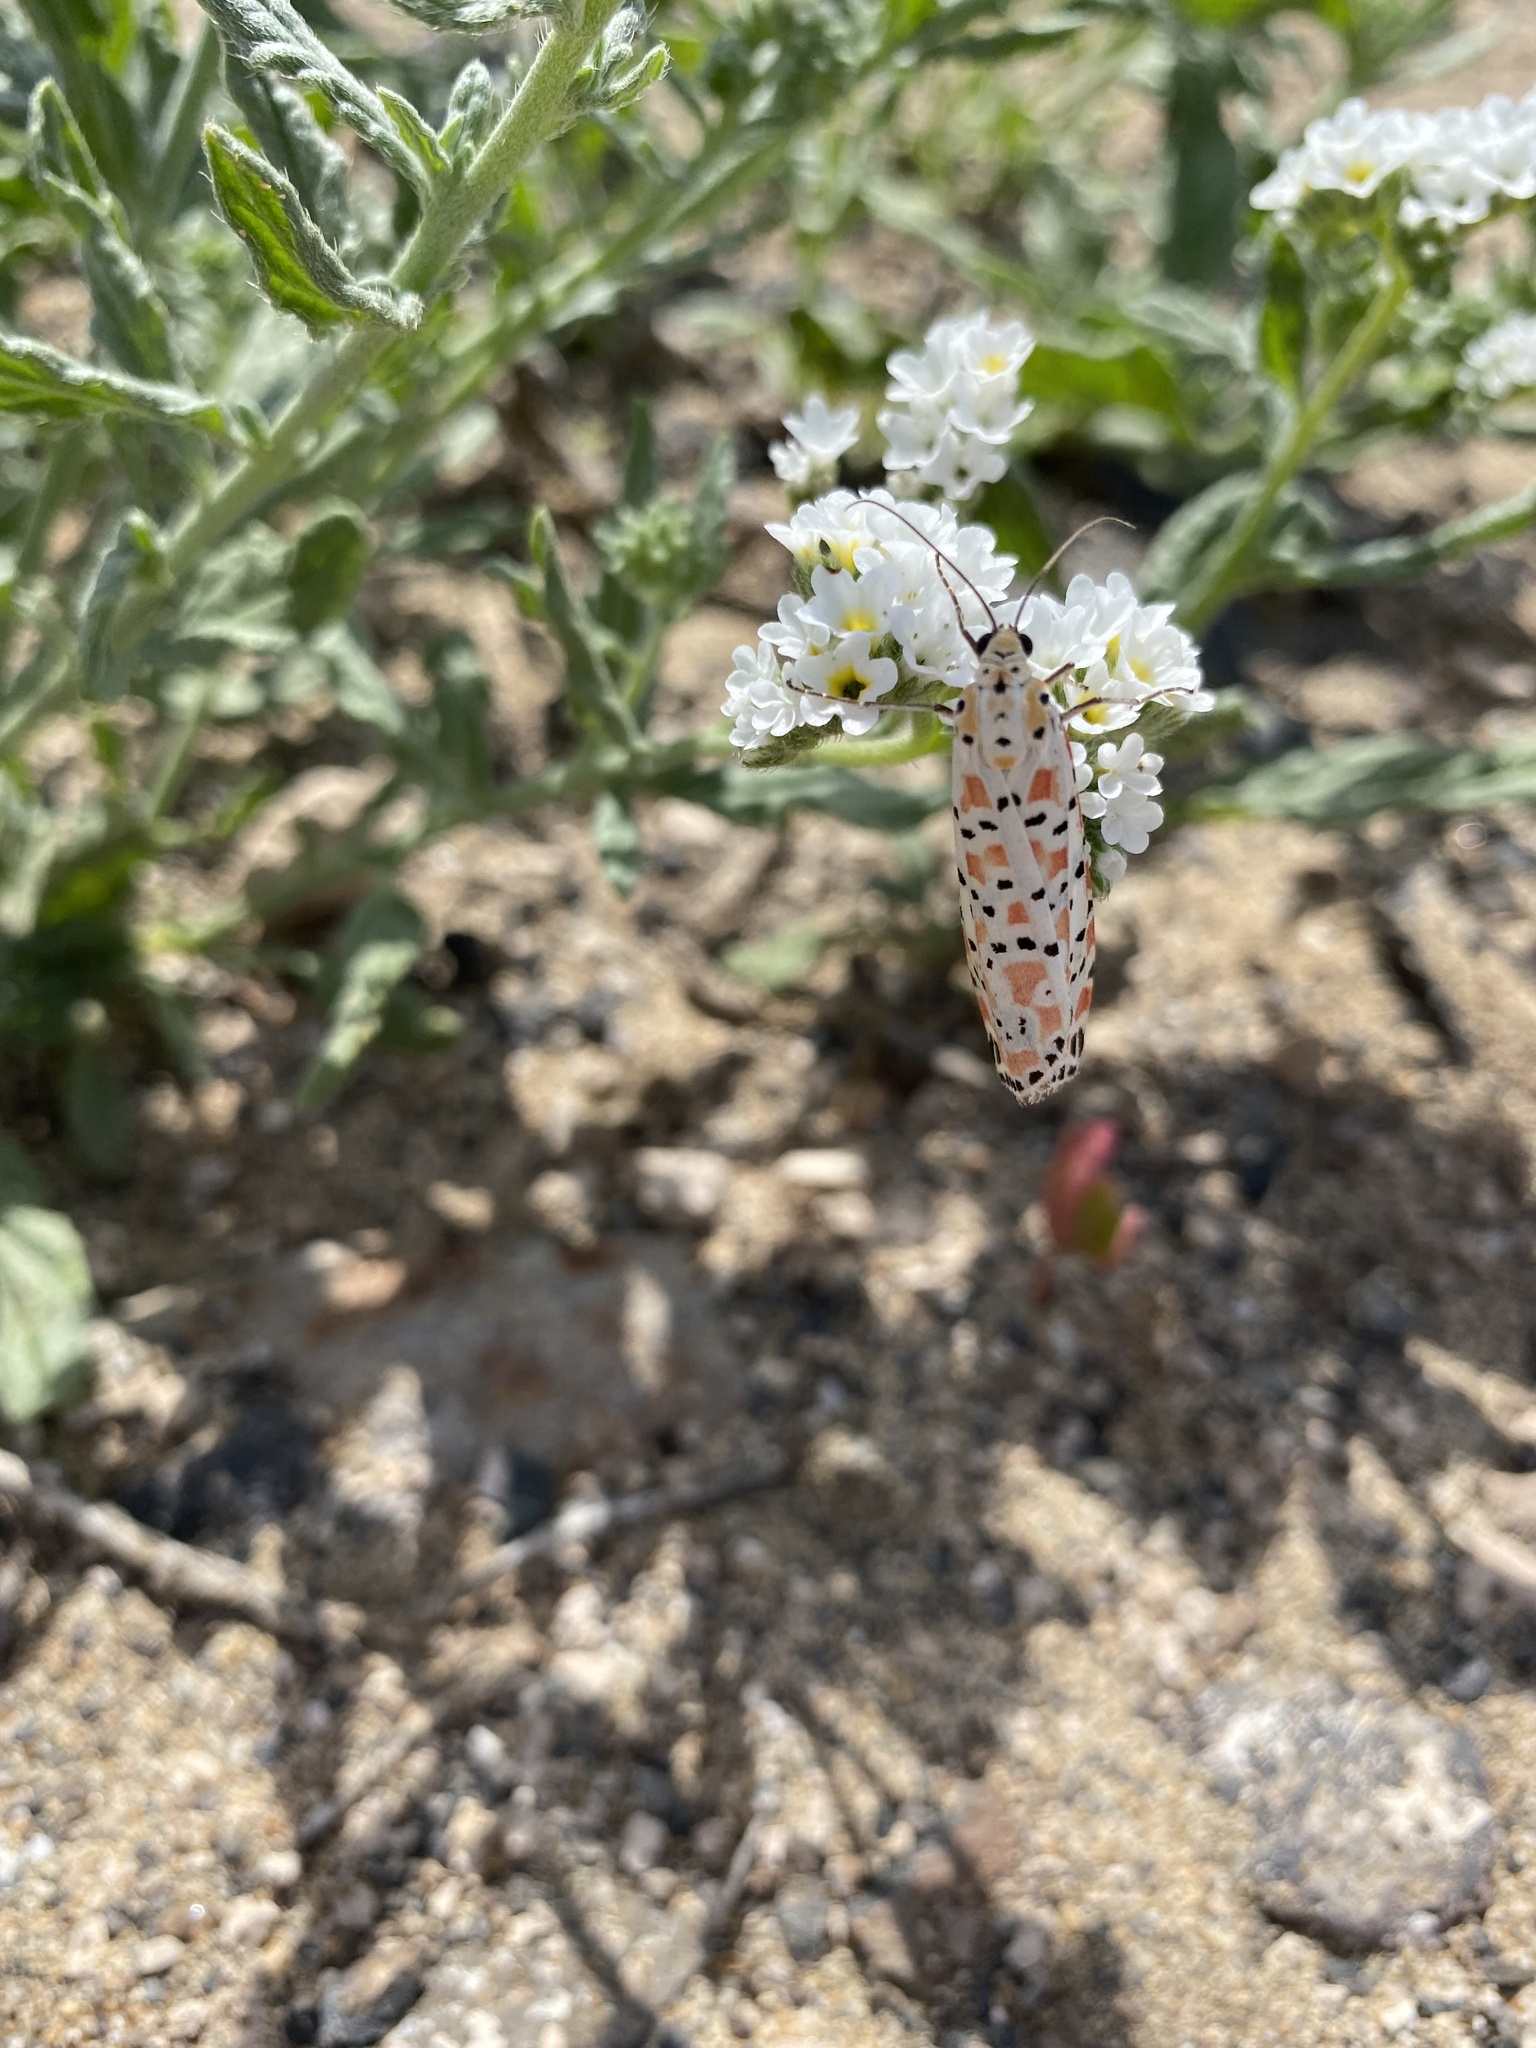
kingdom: Animalia
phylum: Arthropoda
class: Insecta
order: Lepidoptera
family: Erebidae
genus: Utetheisa
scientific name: Utetheisa pulchella
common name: Crimson speckled
